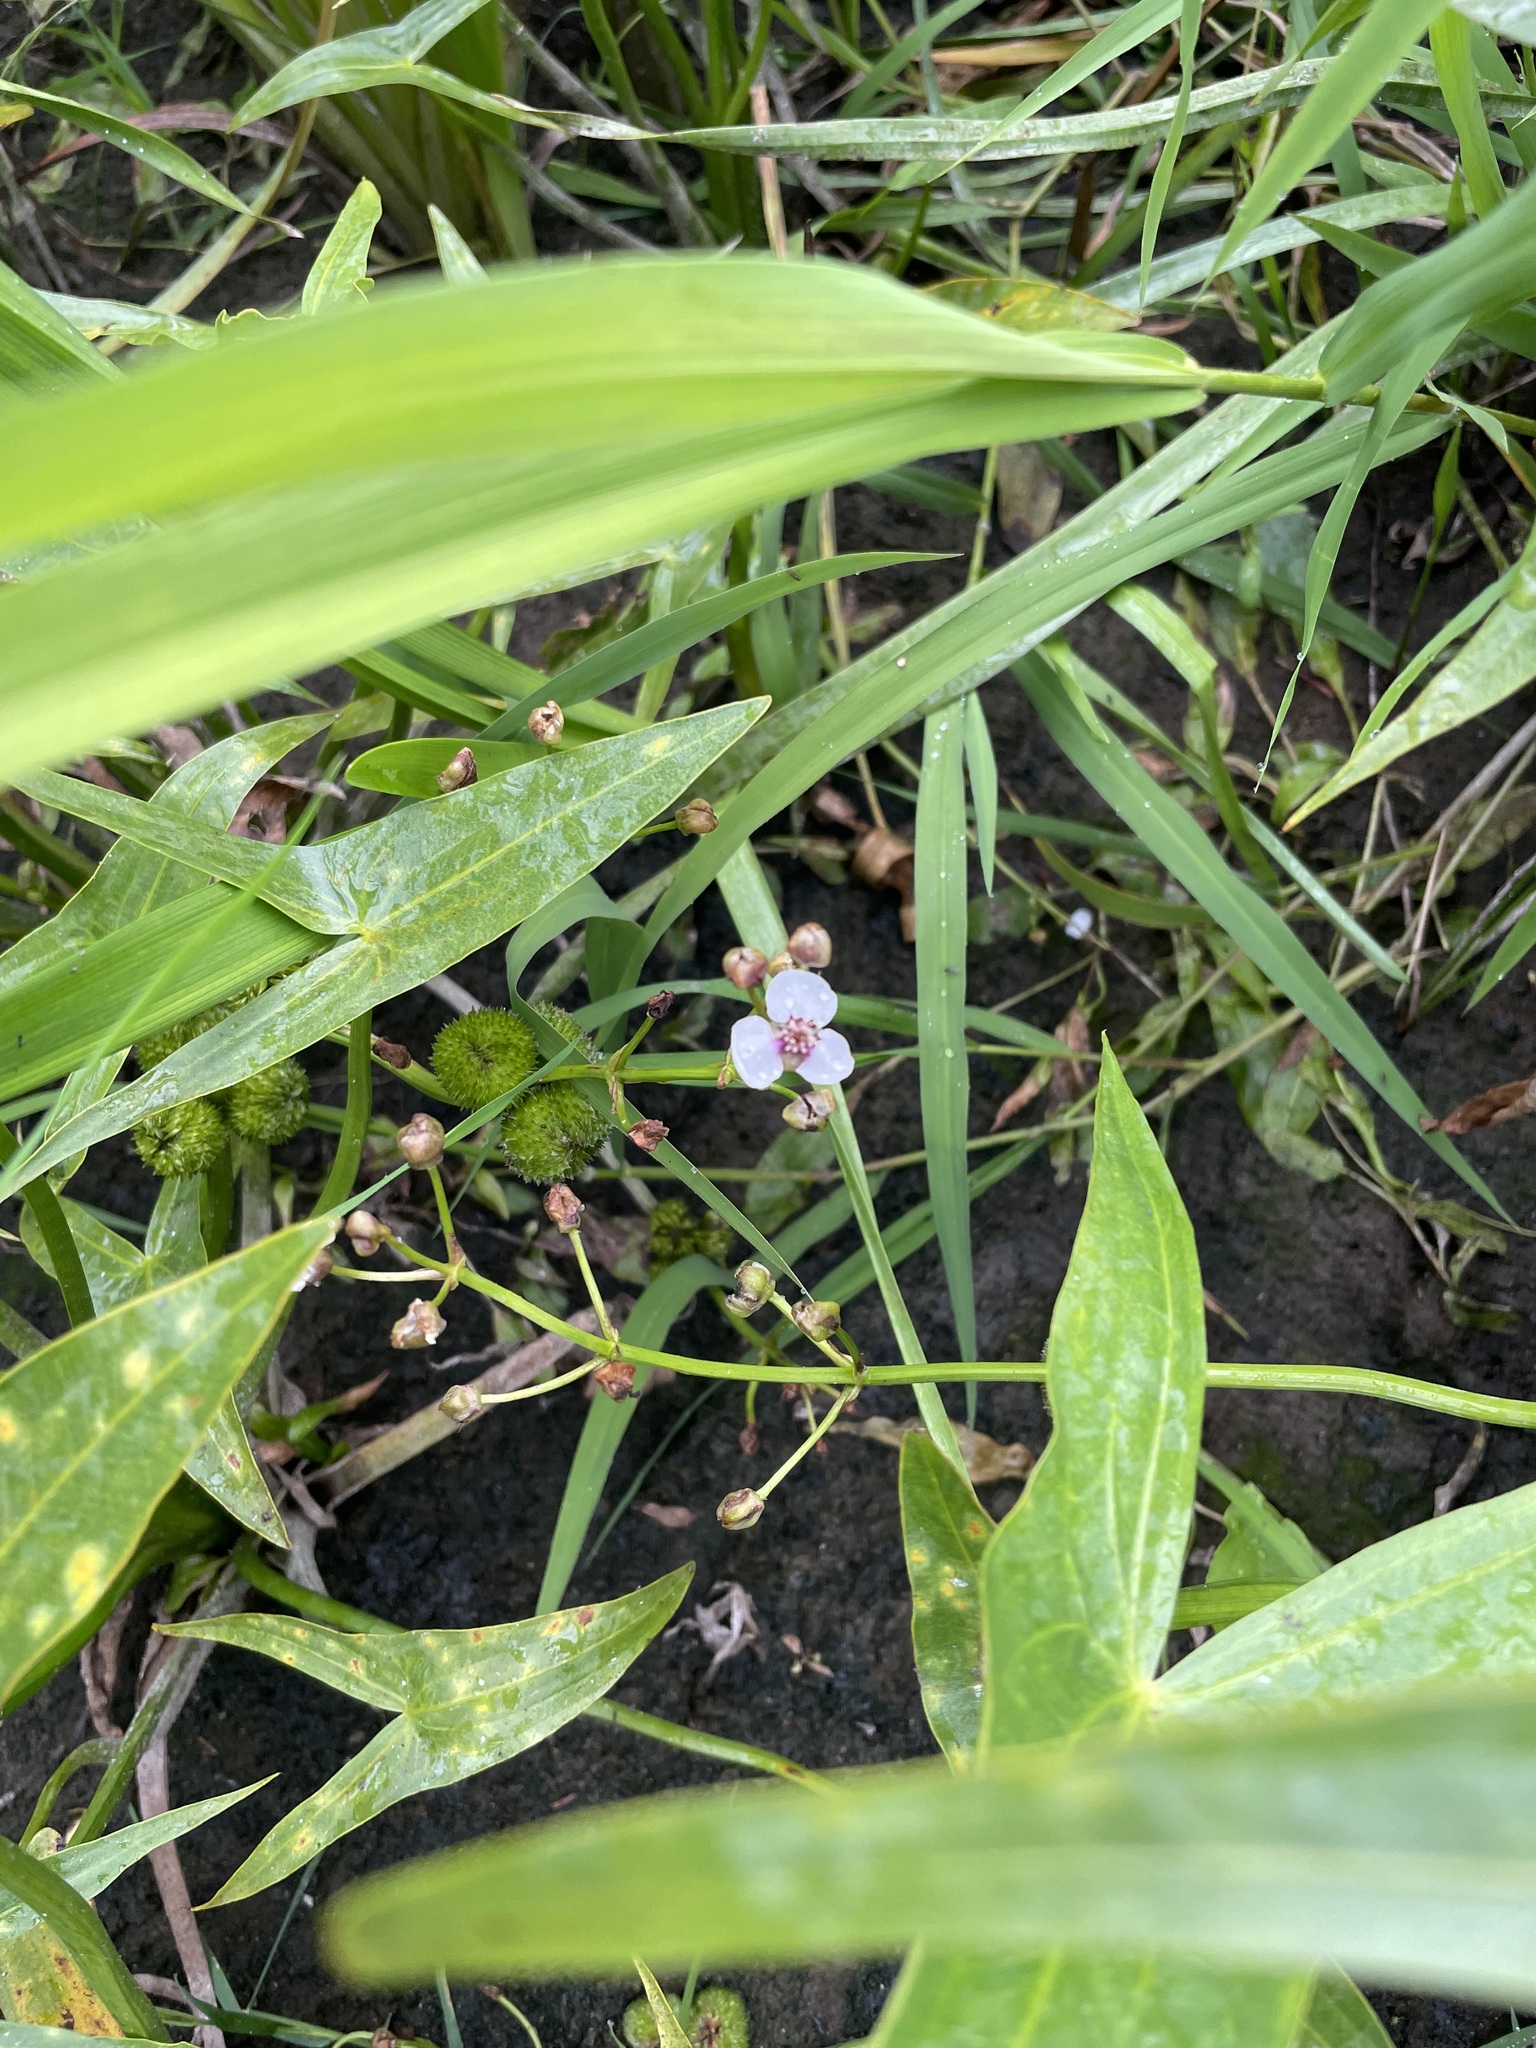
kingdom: Plantae
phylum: Tracheophyta
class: Liliopsida
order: Alismatales
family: Alismataceae
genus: Sagittaria
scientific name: Sagittaria sagittifolia
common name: Arrowhead
